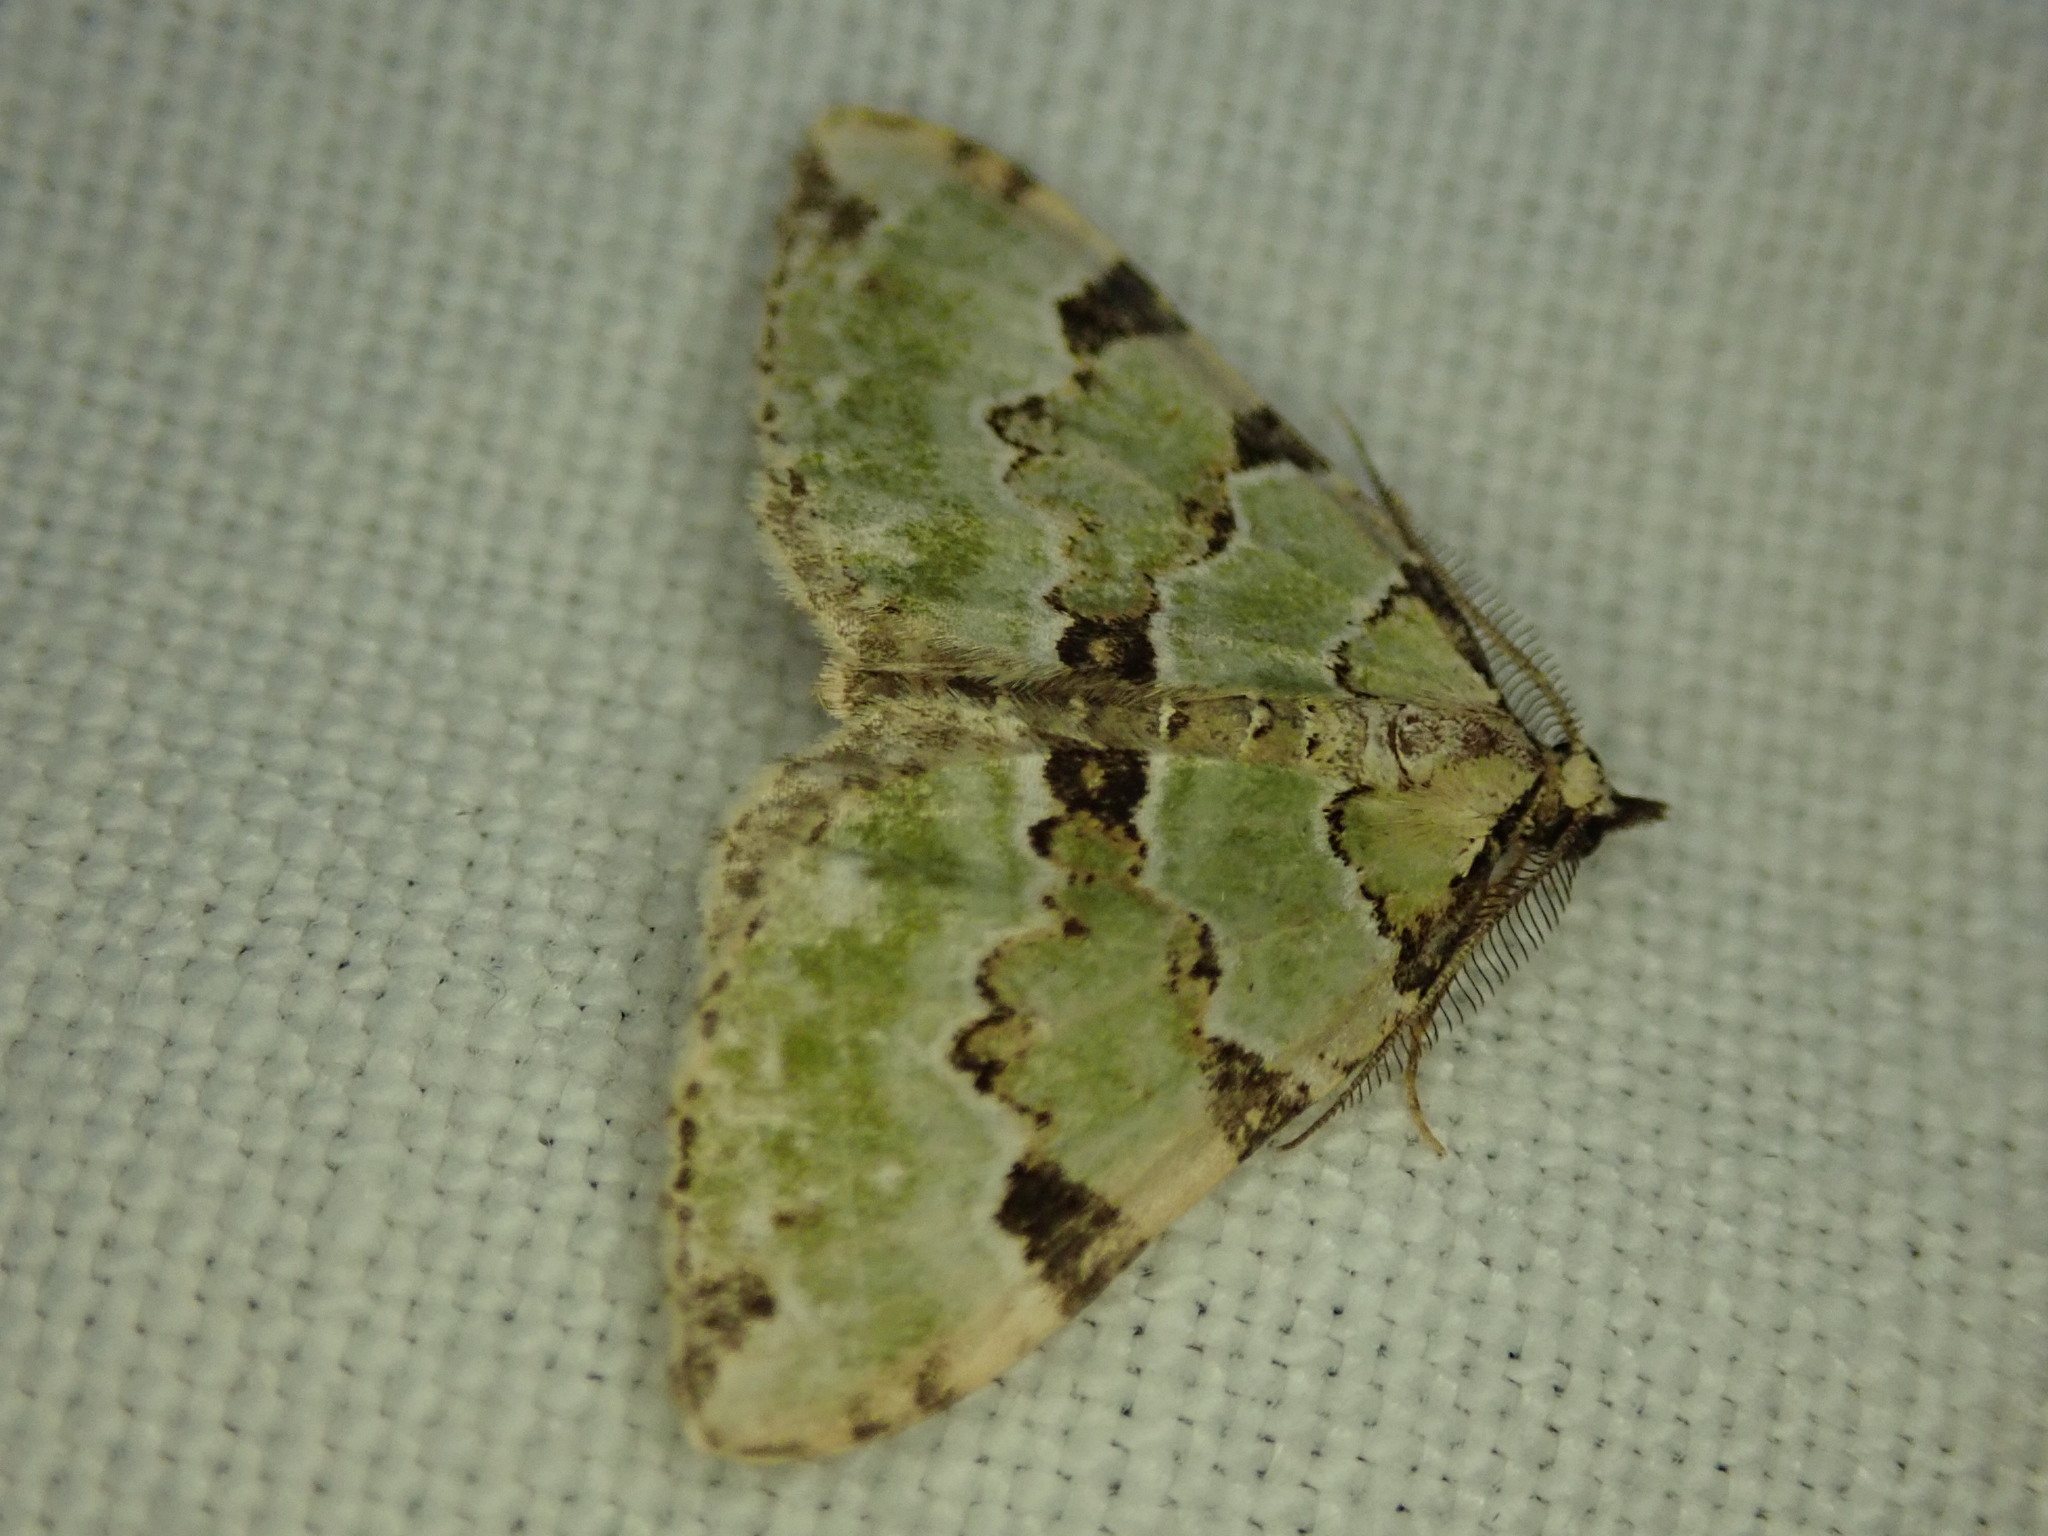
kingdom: Animalia
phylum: Arthropoda
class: Insecta
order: Lepidoptera
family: Geometridae
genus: Colostygia
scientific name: Colostygia pectinataria
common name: Green carpet
